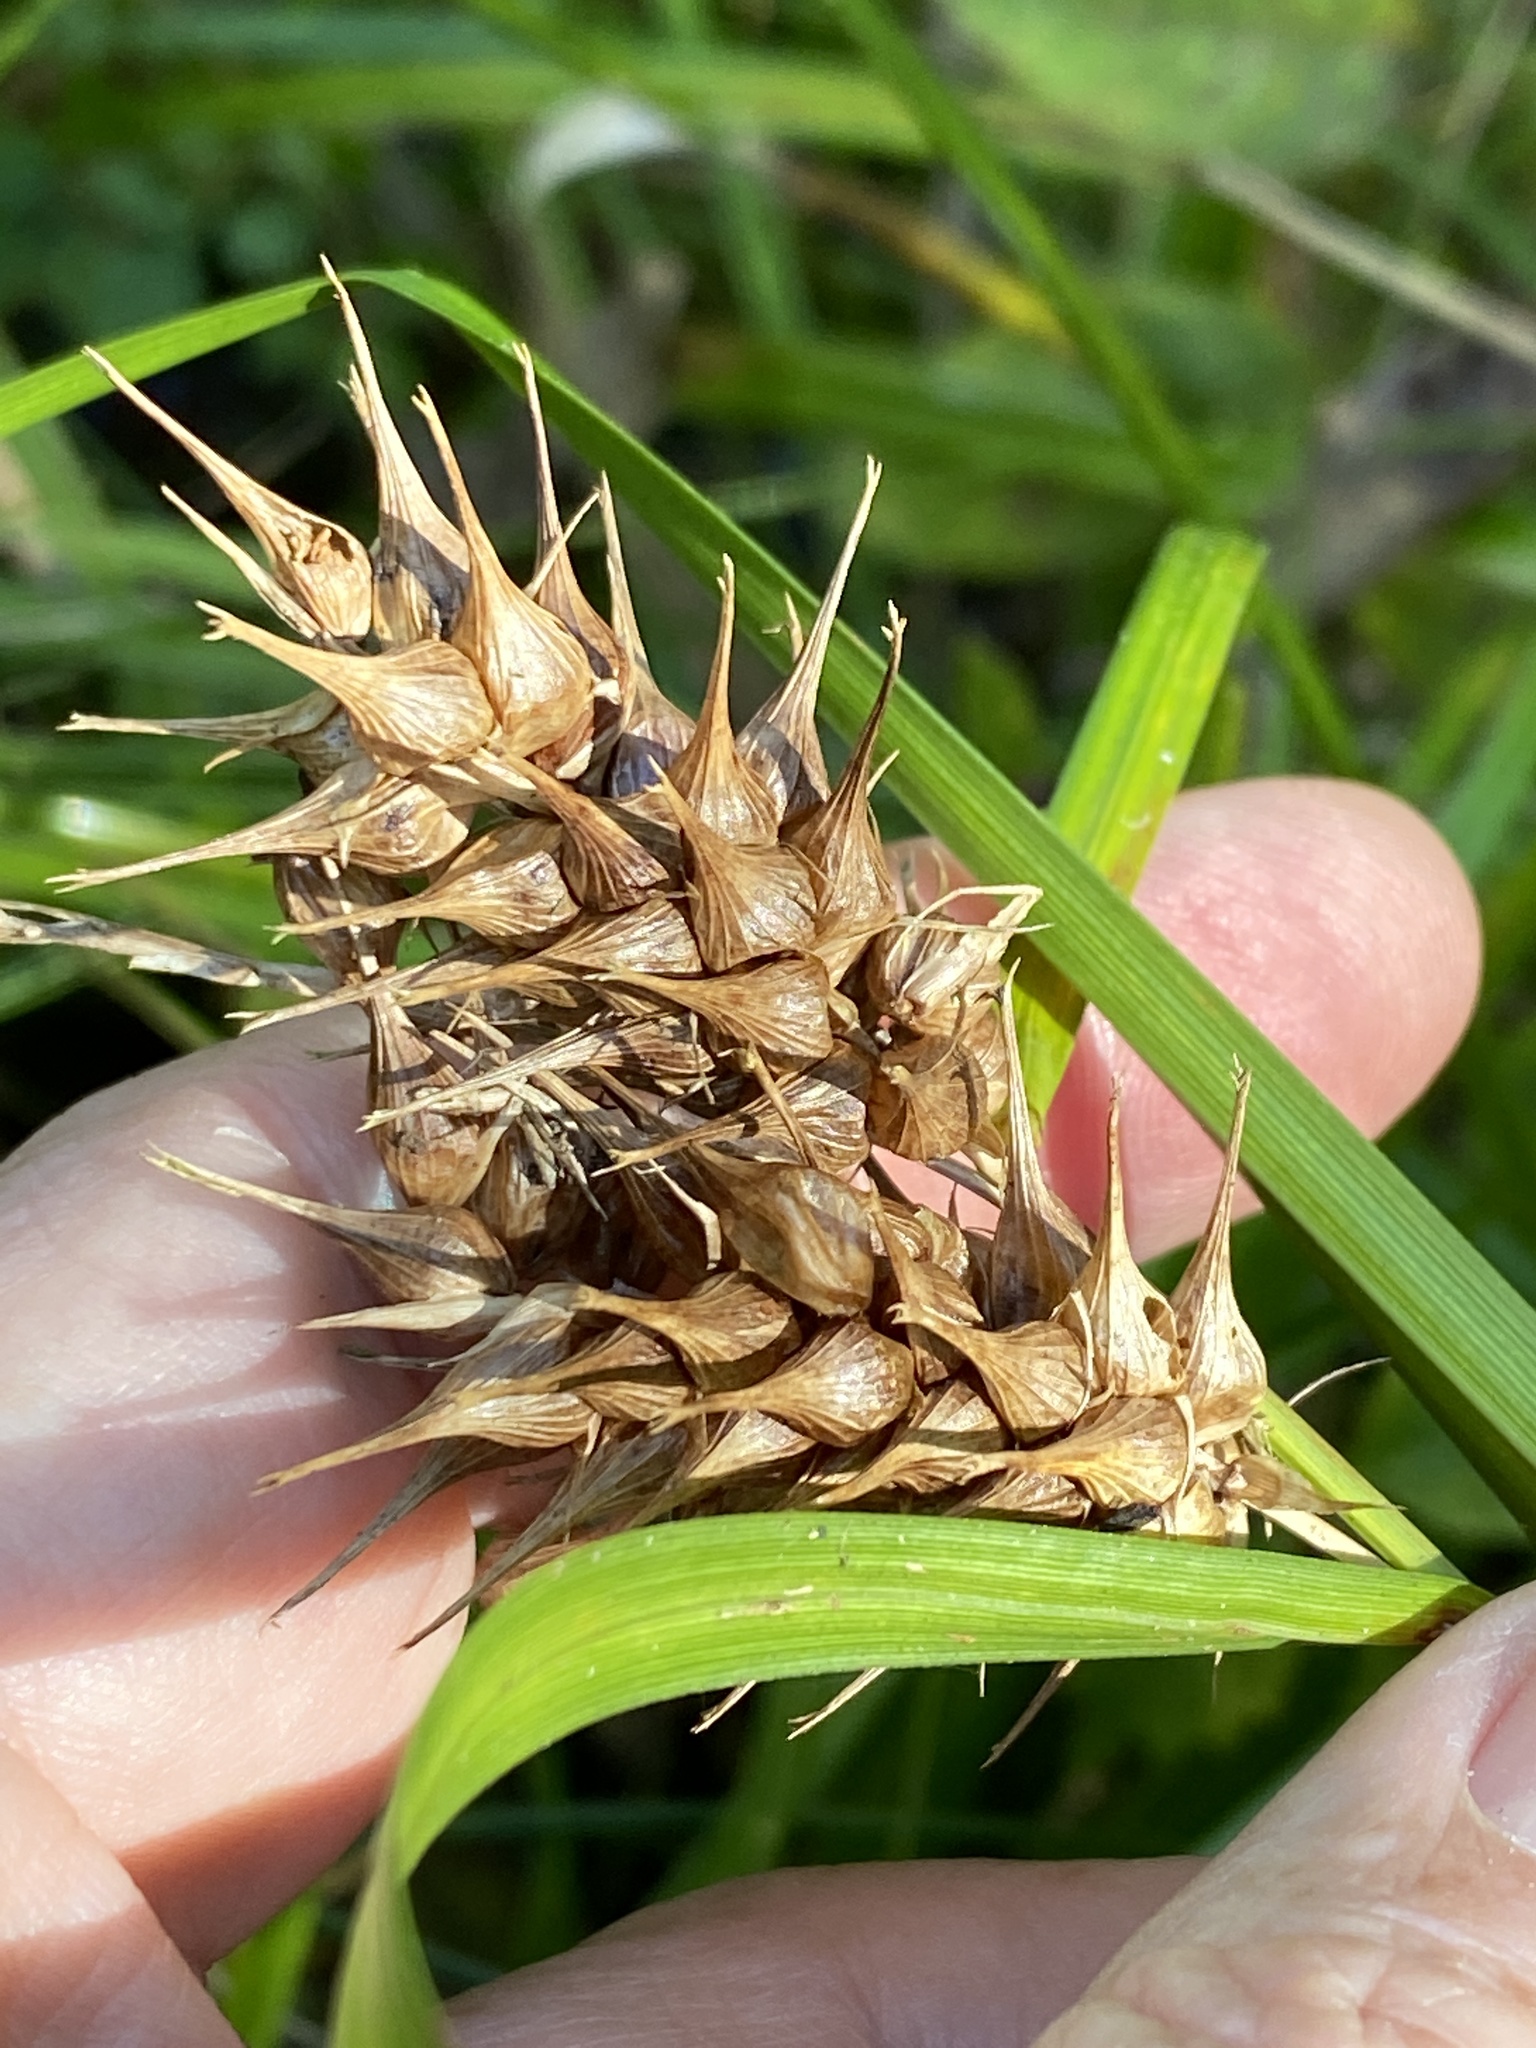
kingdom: Plantae
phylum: Tracheophyta
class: Liliopsida
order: Poales
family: Cyperaceae
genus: Carex
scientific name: Carex lupulina
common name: Hop sedge
